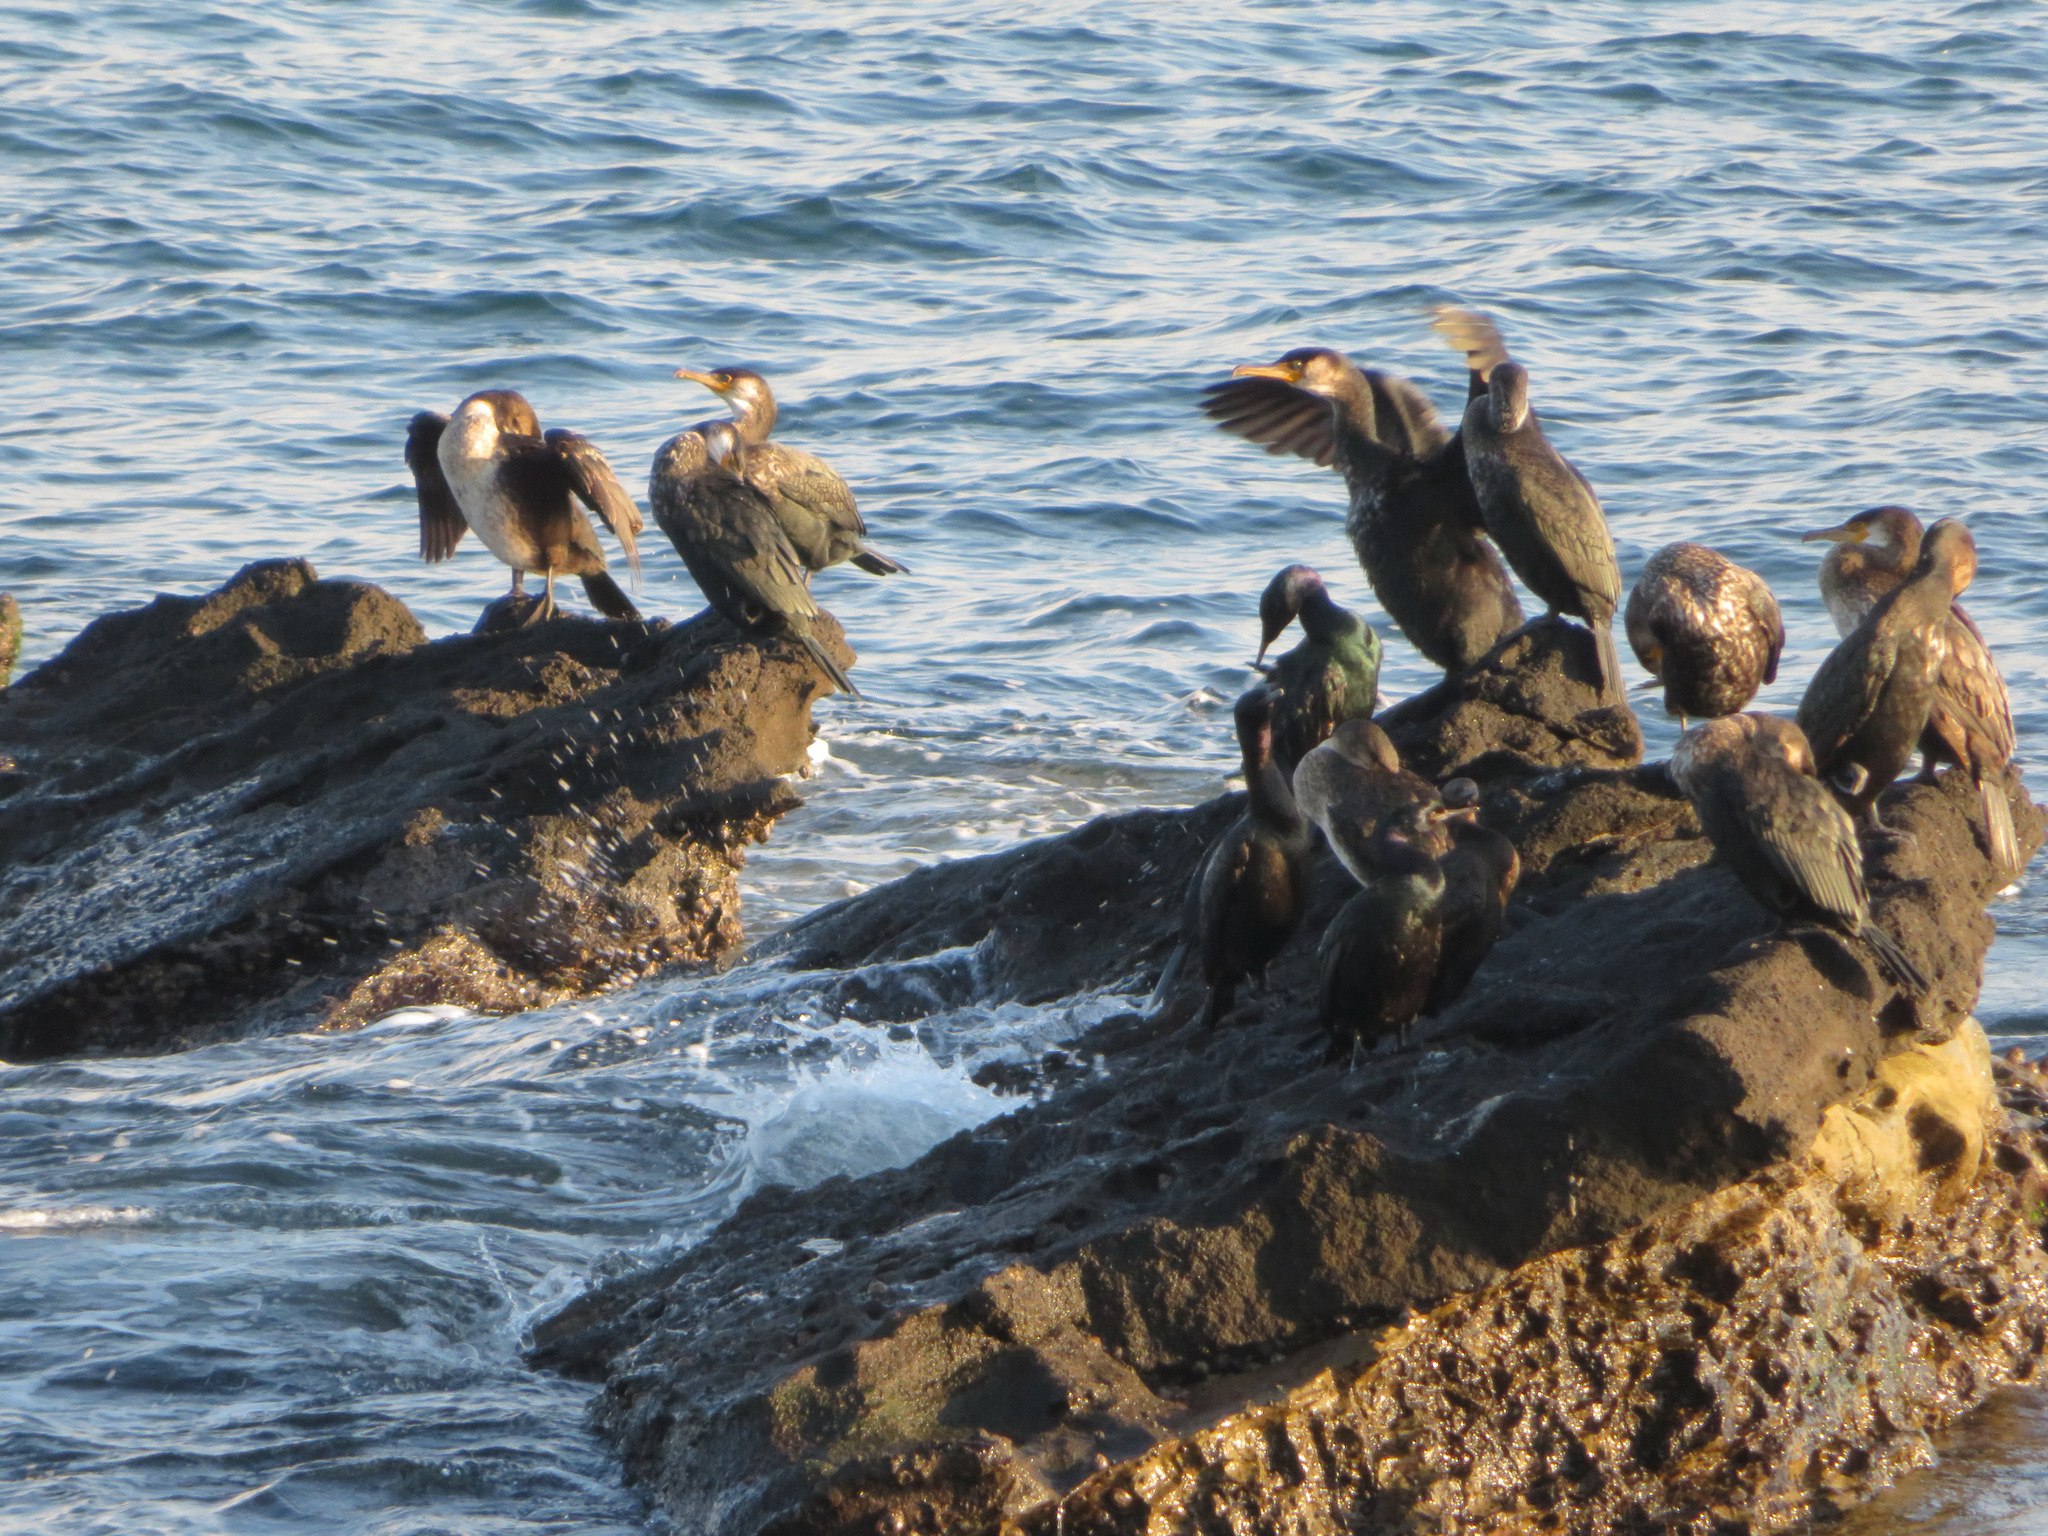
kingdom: Animalia
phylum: Chordata
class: Aves
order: Suliformes
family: Phalacrocoracidae
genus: Phalacrocorax
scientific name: Phalacrocorax capillatus
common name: Japanese cormorant
